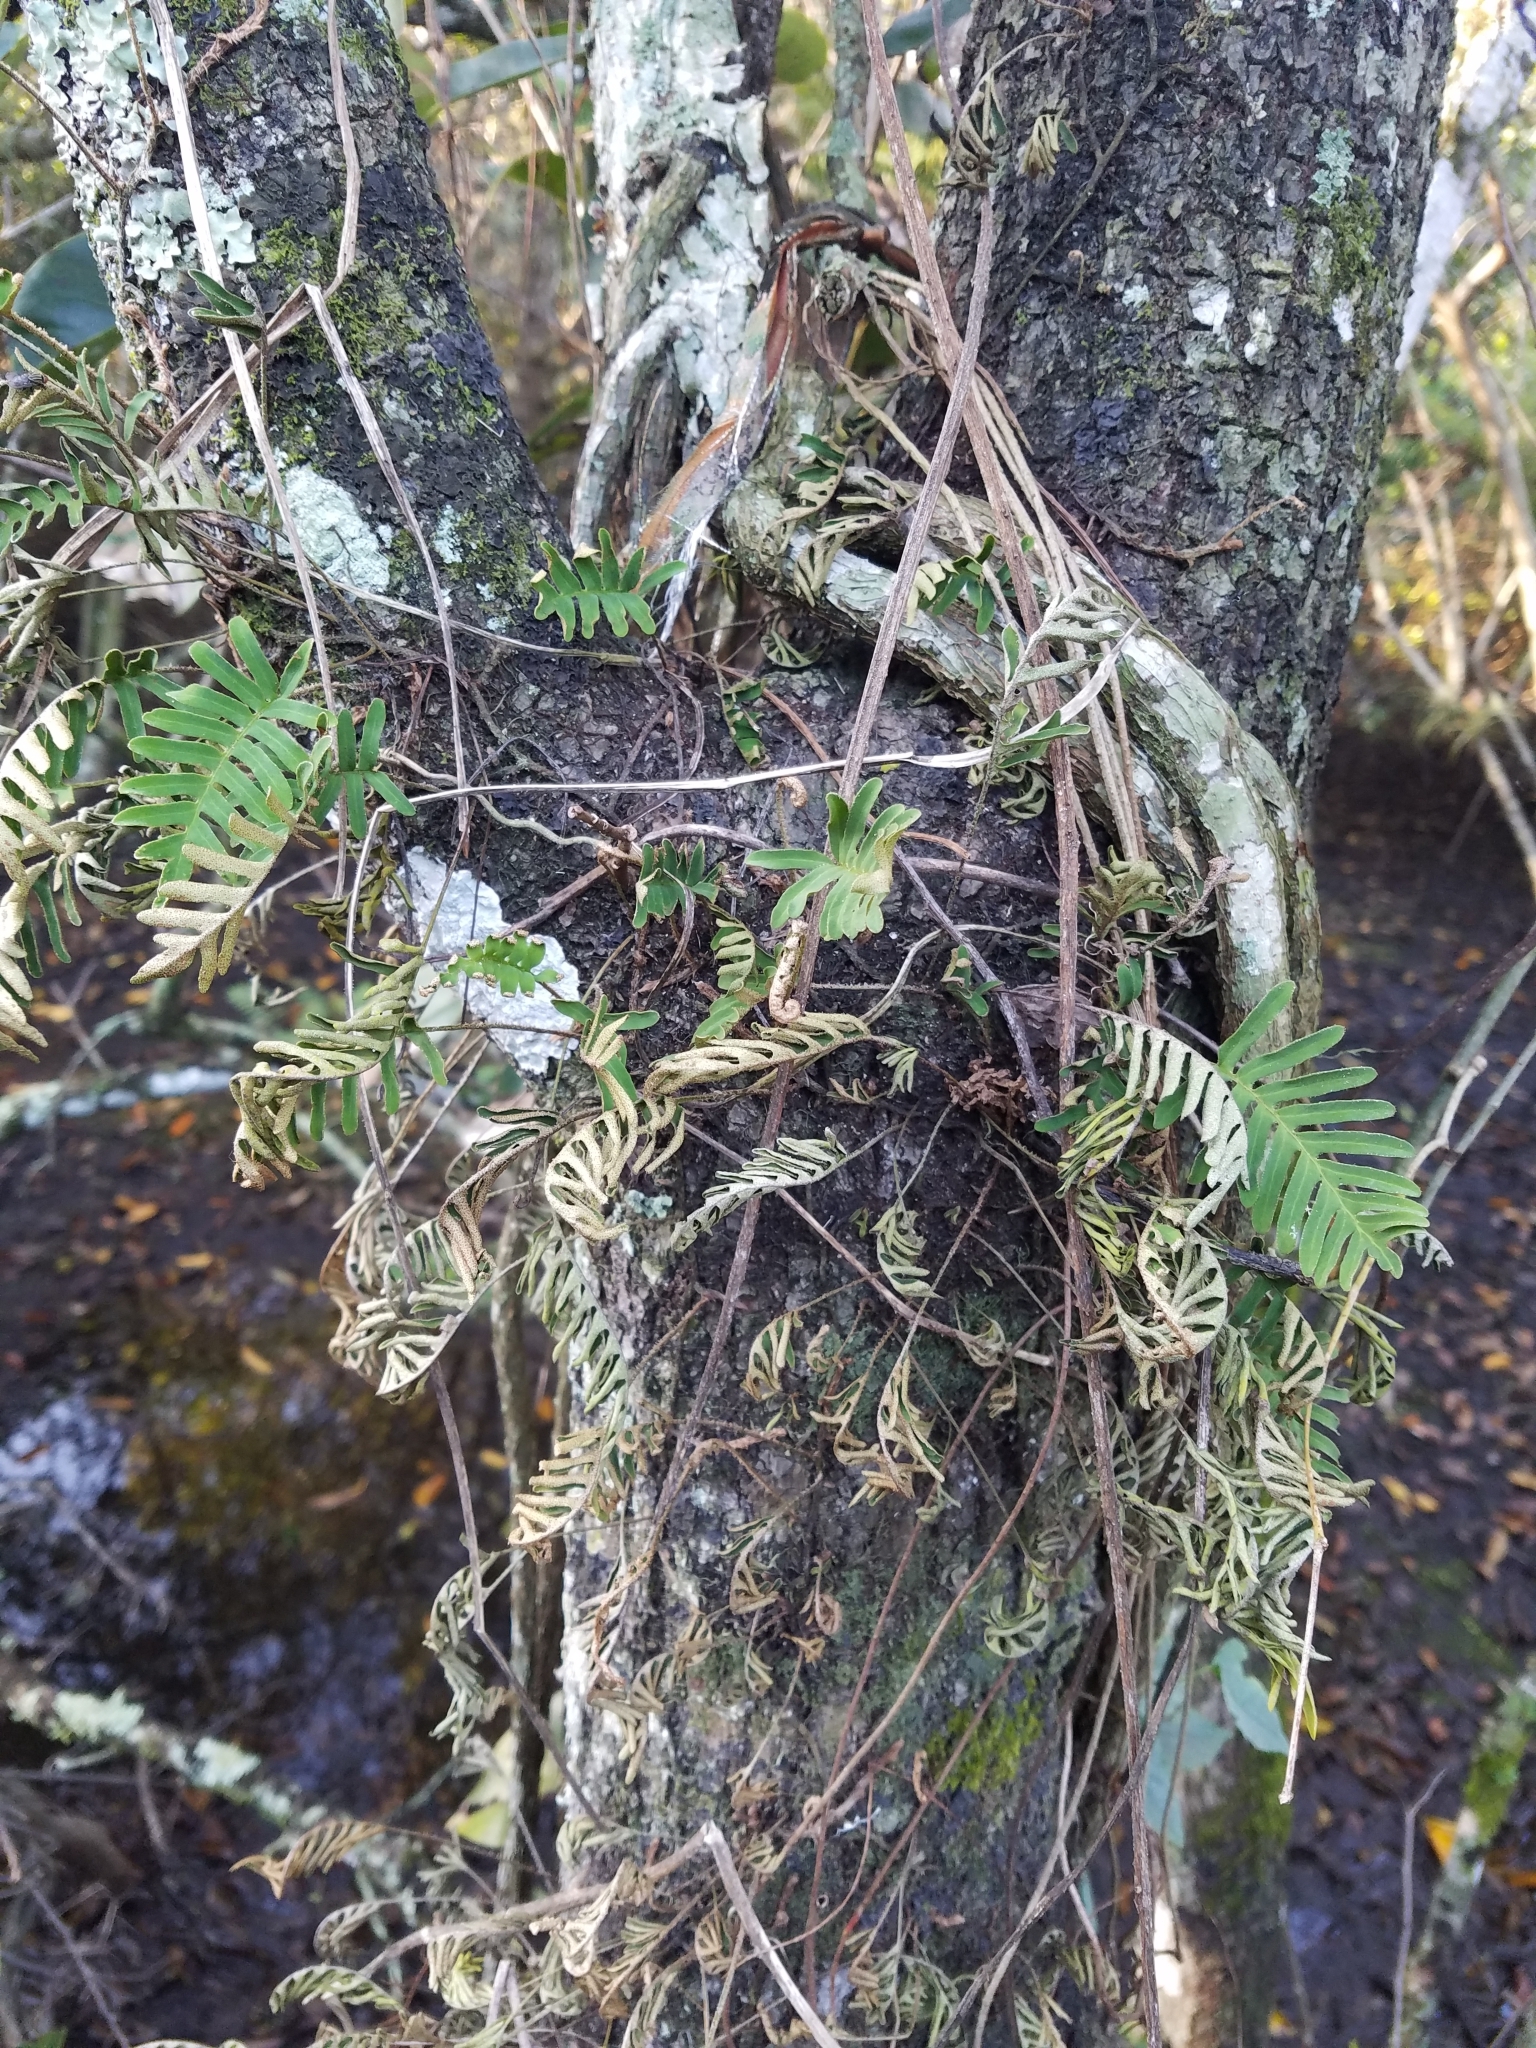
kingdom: Plantae
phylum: Tracheophyta
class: Polypodiopsida
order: Polypodiales
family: Polypodiaceae
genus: Pleopeltis
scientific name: Pleopeltis michauxiana
